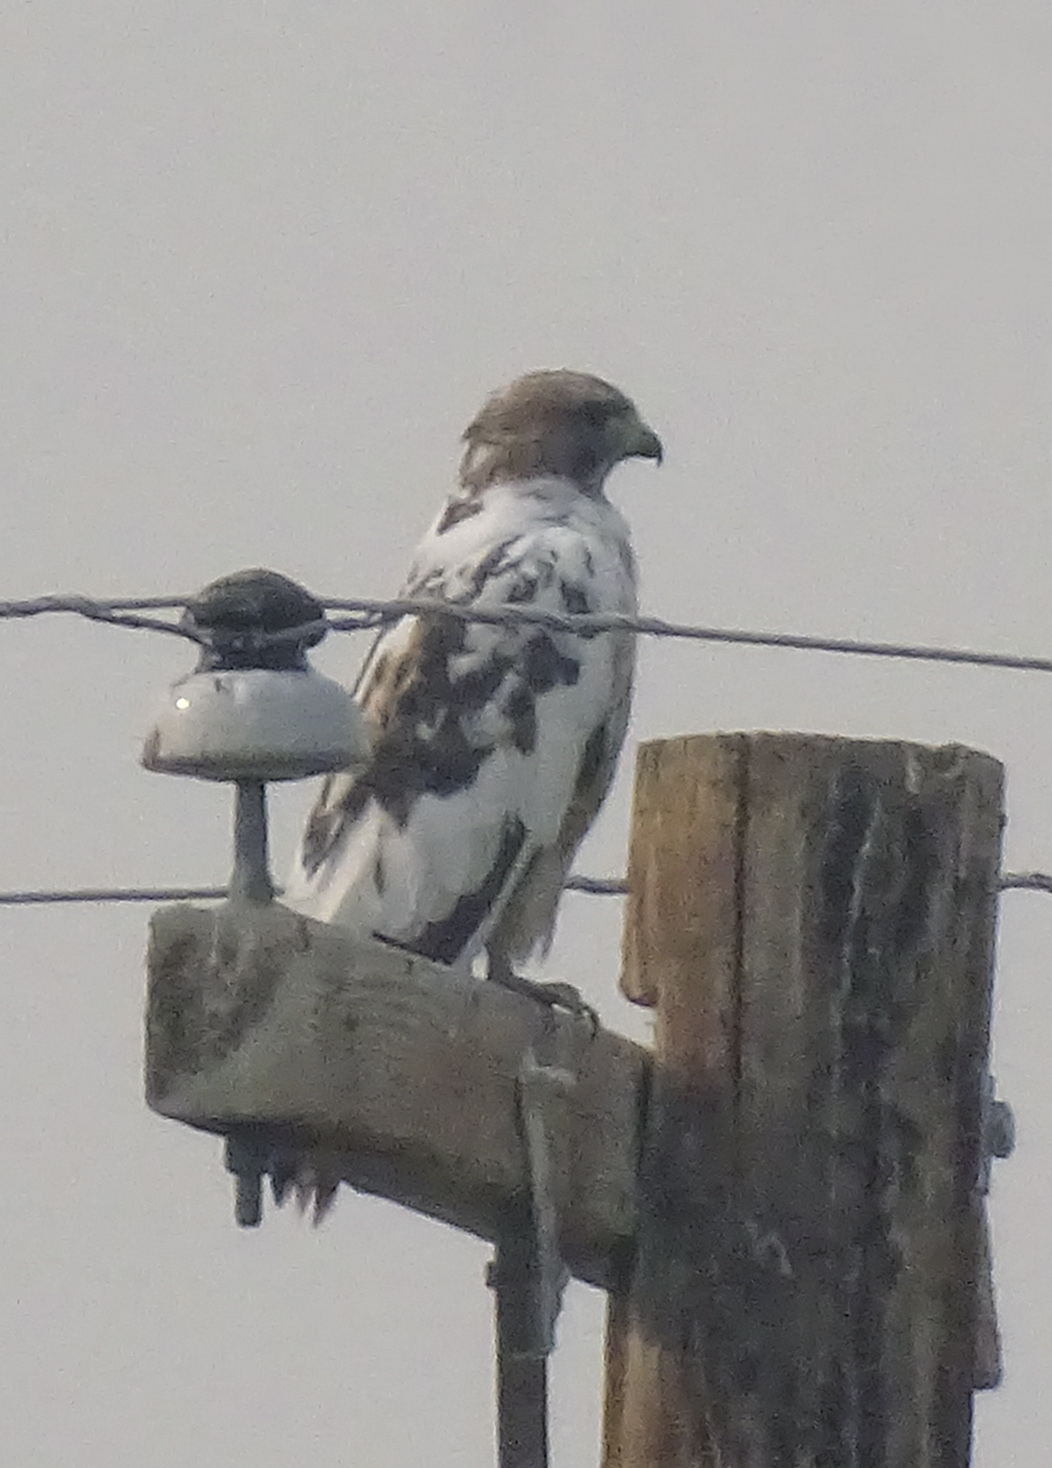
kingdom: Animalia
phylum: Chordata
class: Aves
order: Accipitriformes
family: Accipitridae
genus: Buteo
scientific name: Buteo jamaicensis
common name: Red-tailed hawk
